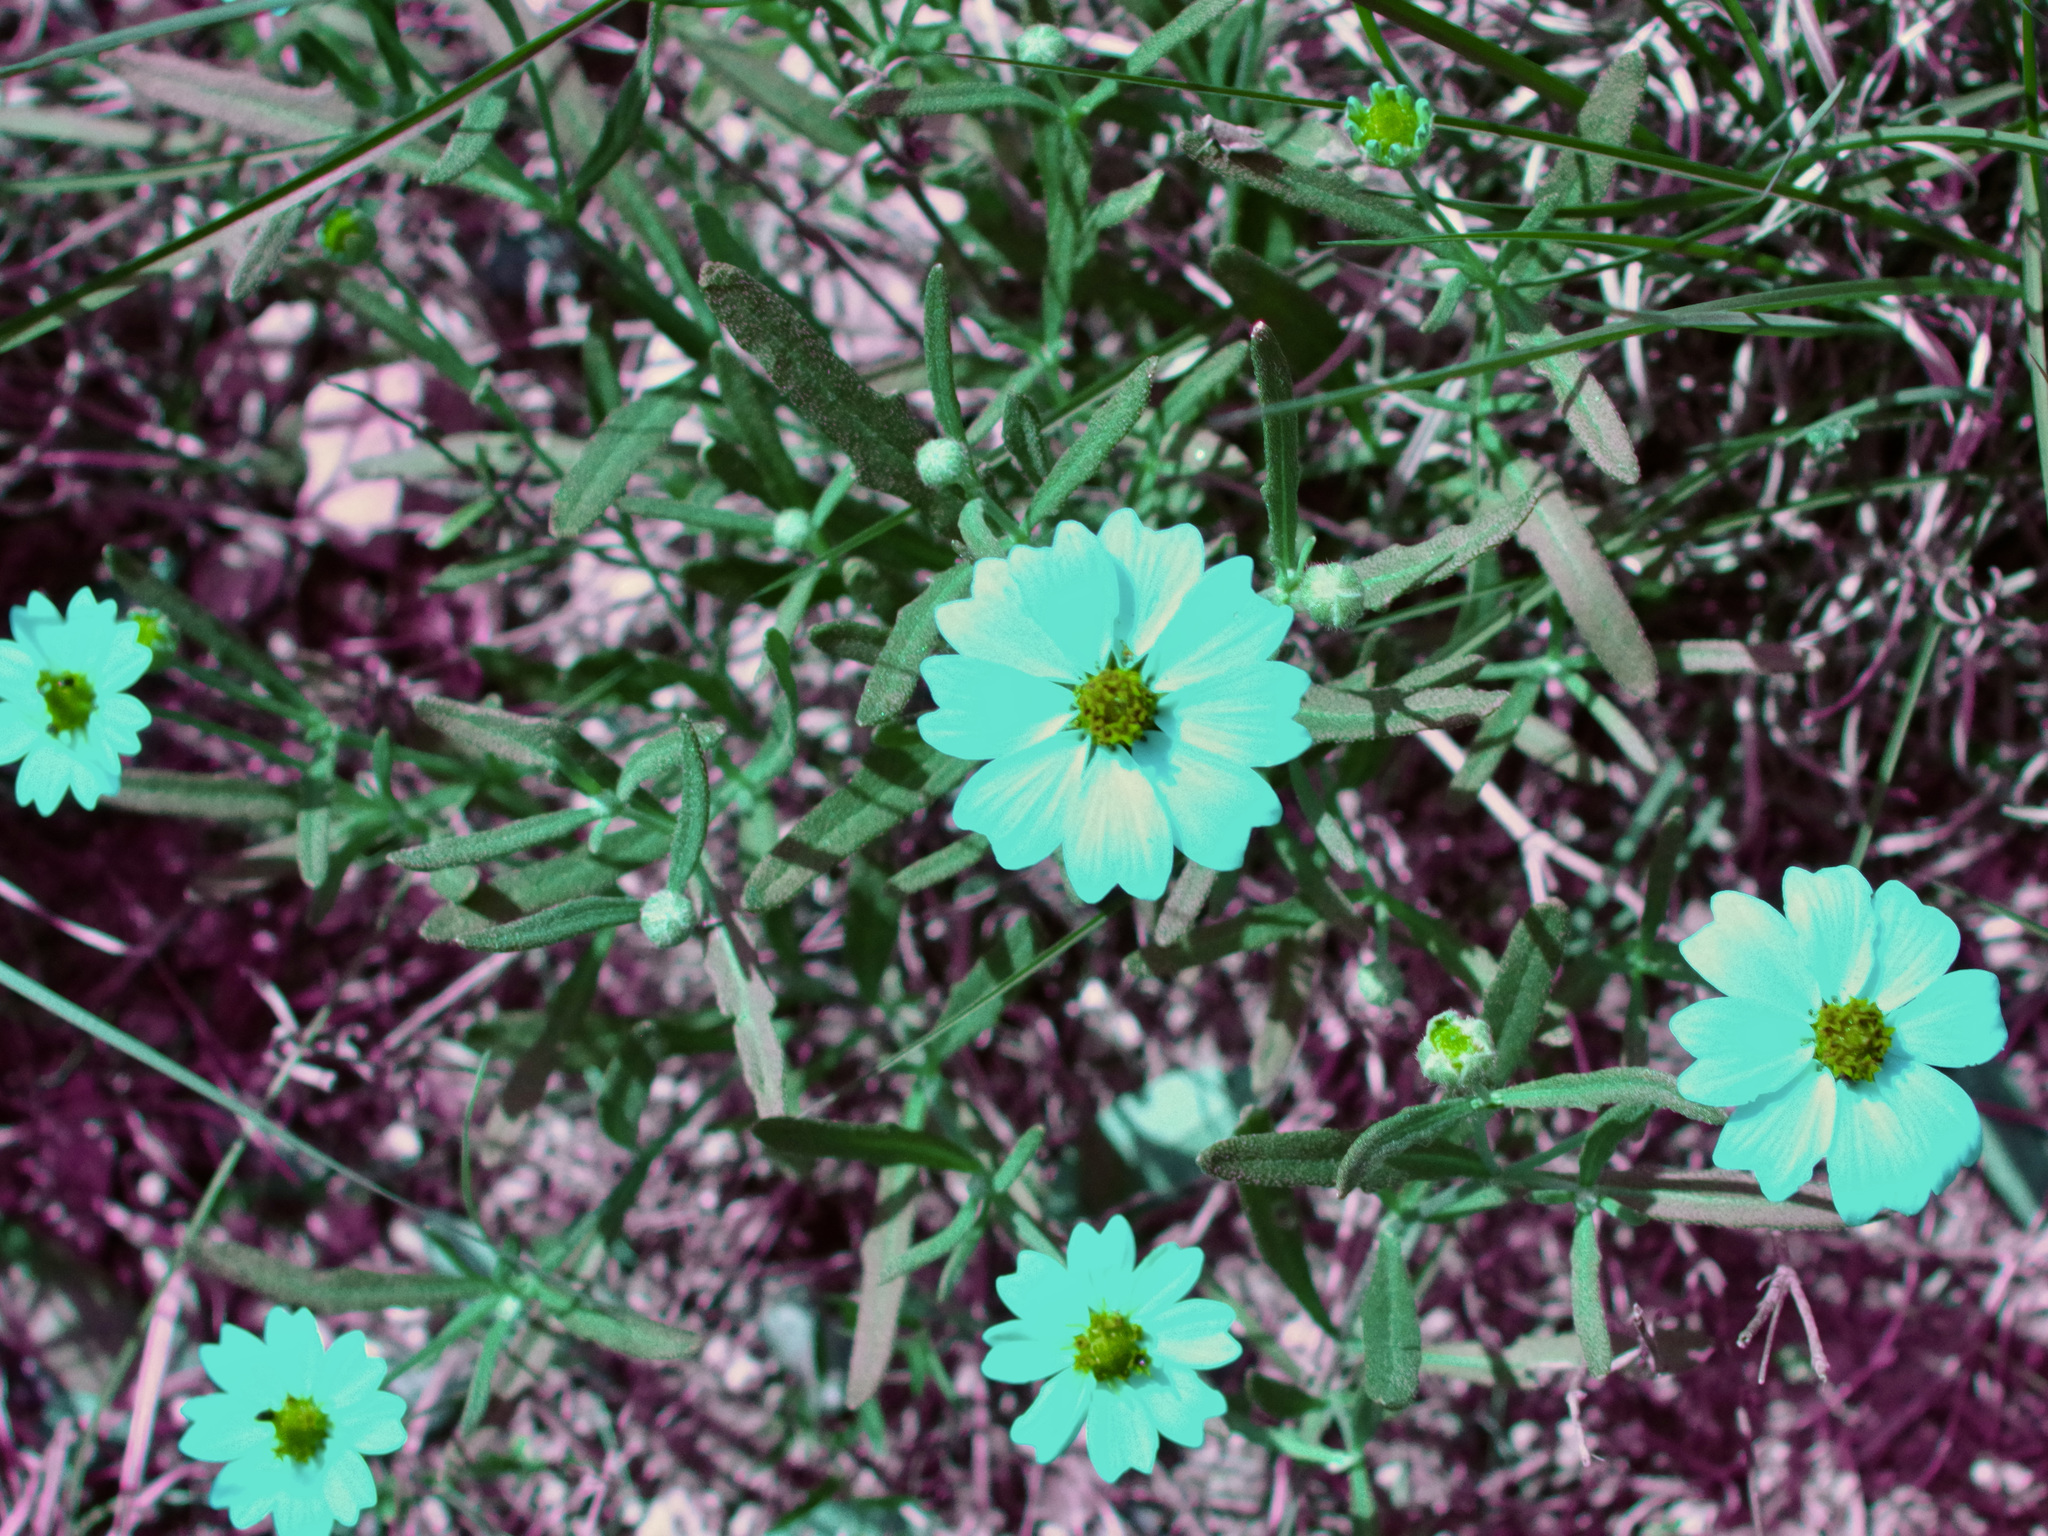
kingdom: Plantae
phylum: Tracheophyta
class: Magnoliopsida
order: Asterales
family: Asteraceae
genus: Melampodium
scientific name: Melampodium leucanthum
